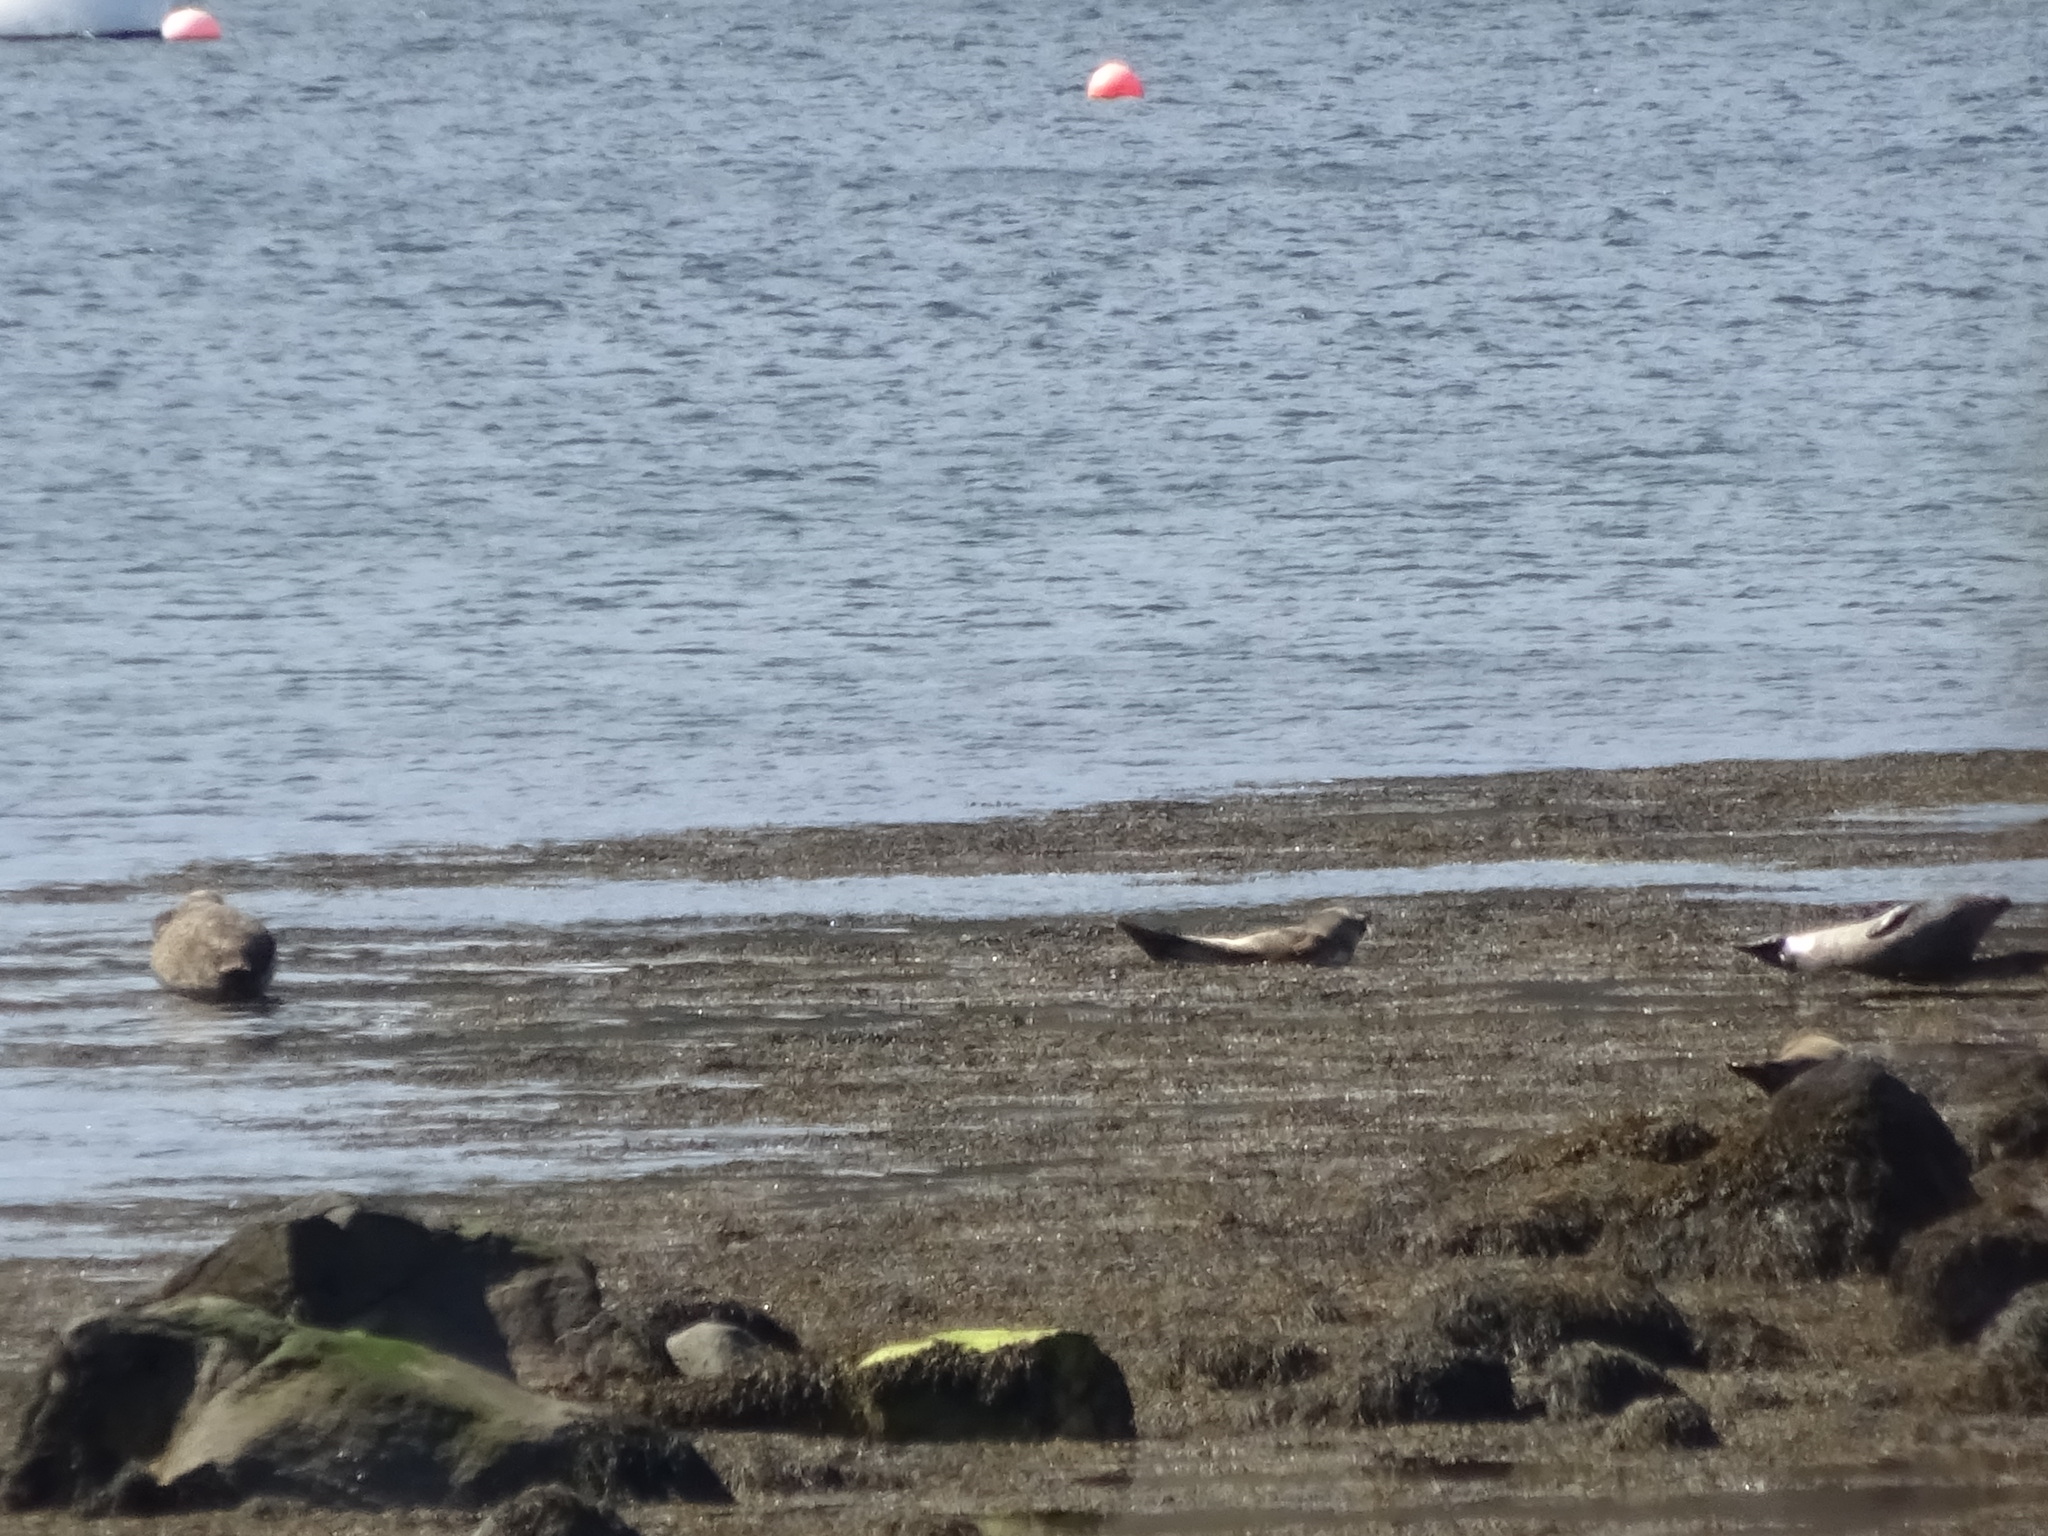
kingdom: Animalia
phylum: Chordata
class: Mammalia
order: Carnivora
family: Phocidae
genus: Phoca
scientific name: Phoca vitulina
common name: Harbor seal
